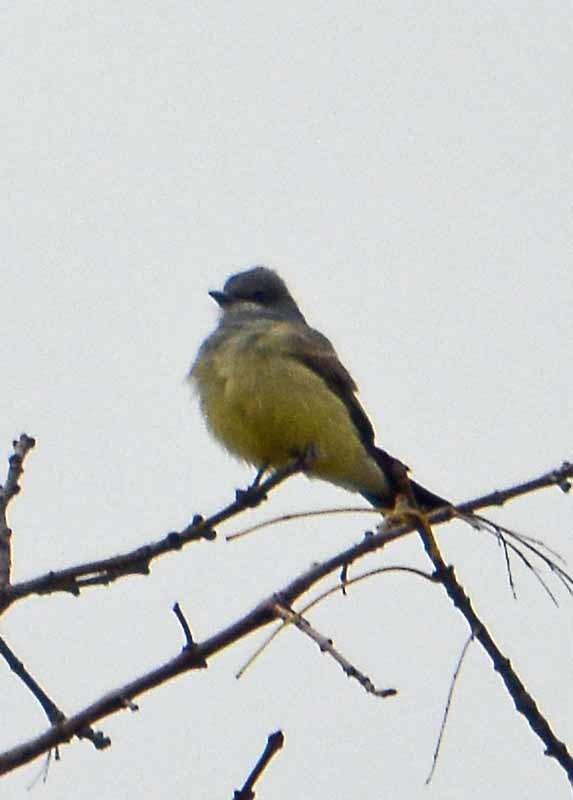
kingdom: Animalia
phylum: Chordata
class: Aves
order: Passeriformes
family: Tyrannidae
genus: Tyrannus
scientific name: Tyrannus vociferans
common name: Cassin's kingbird
